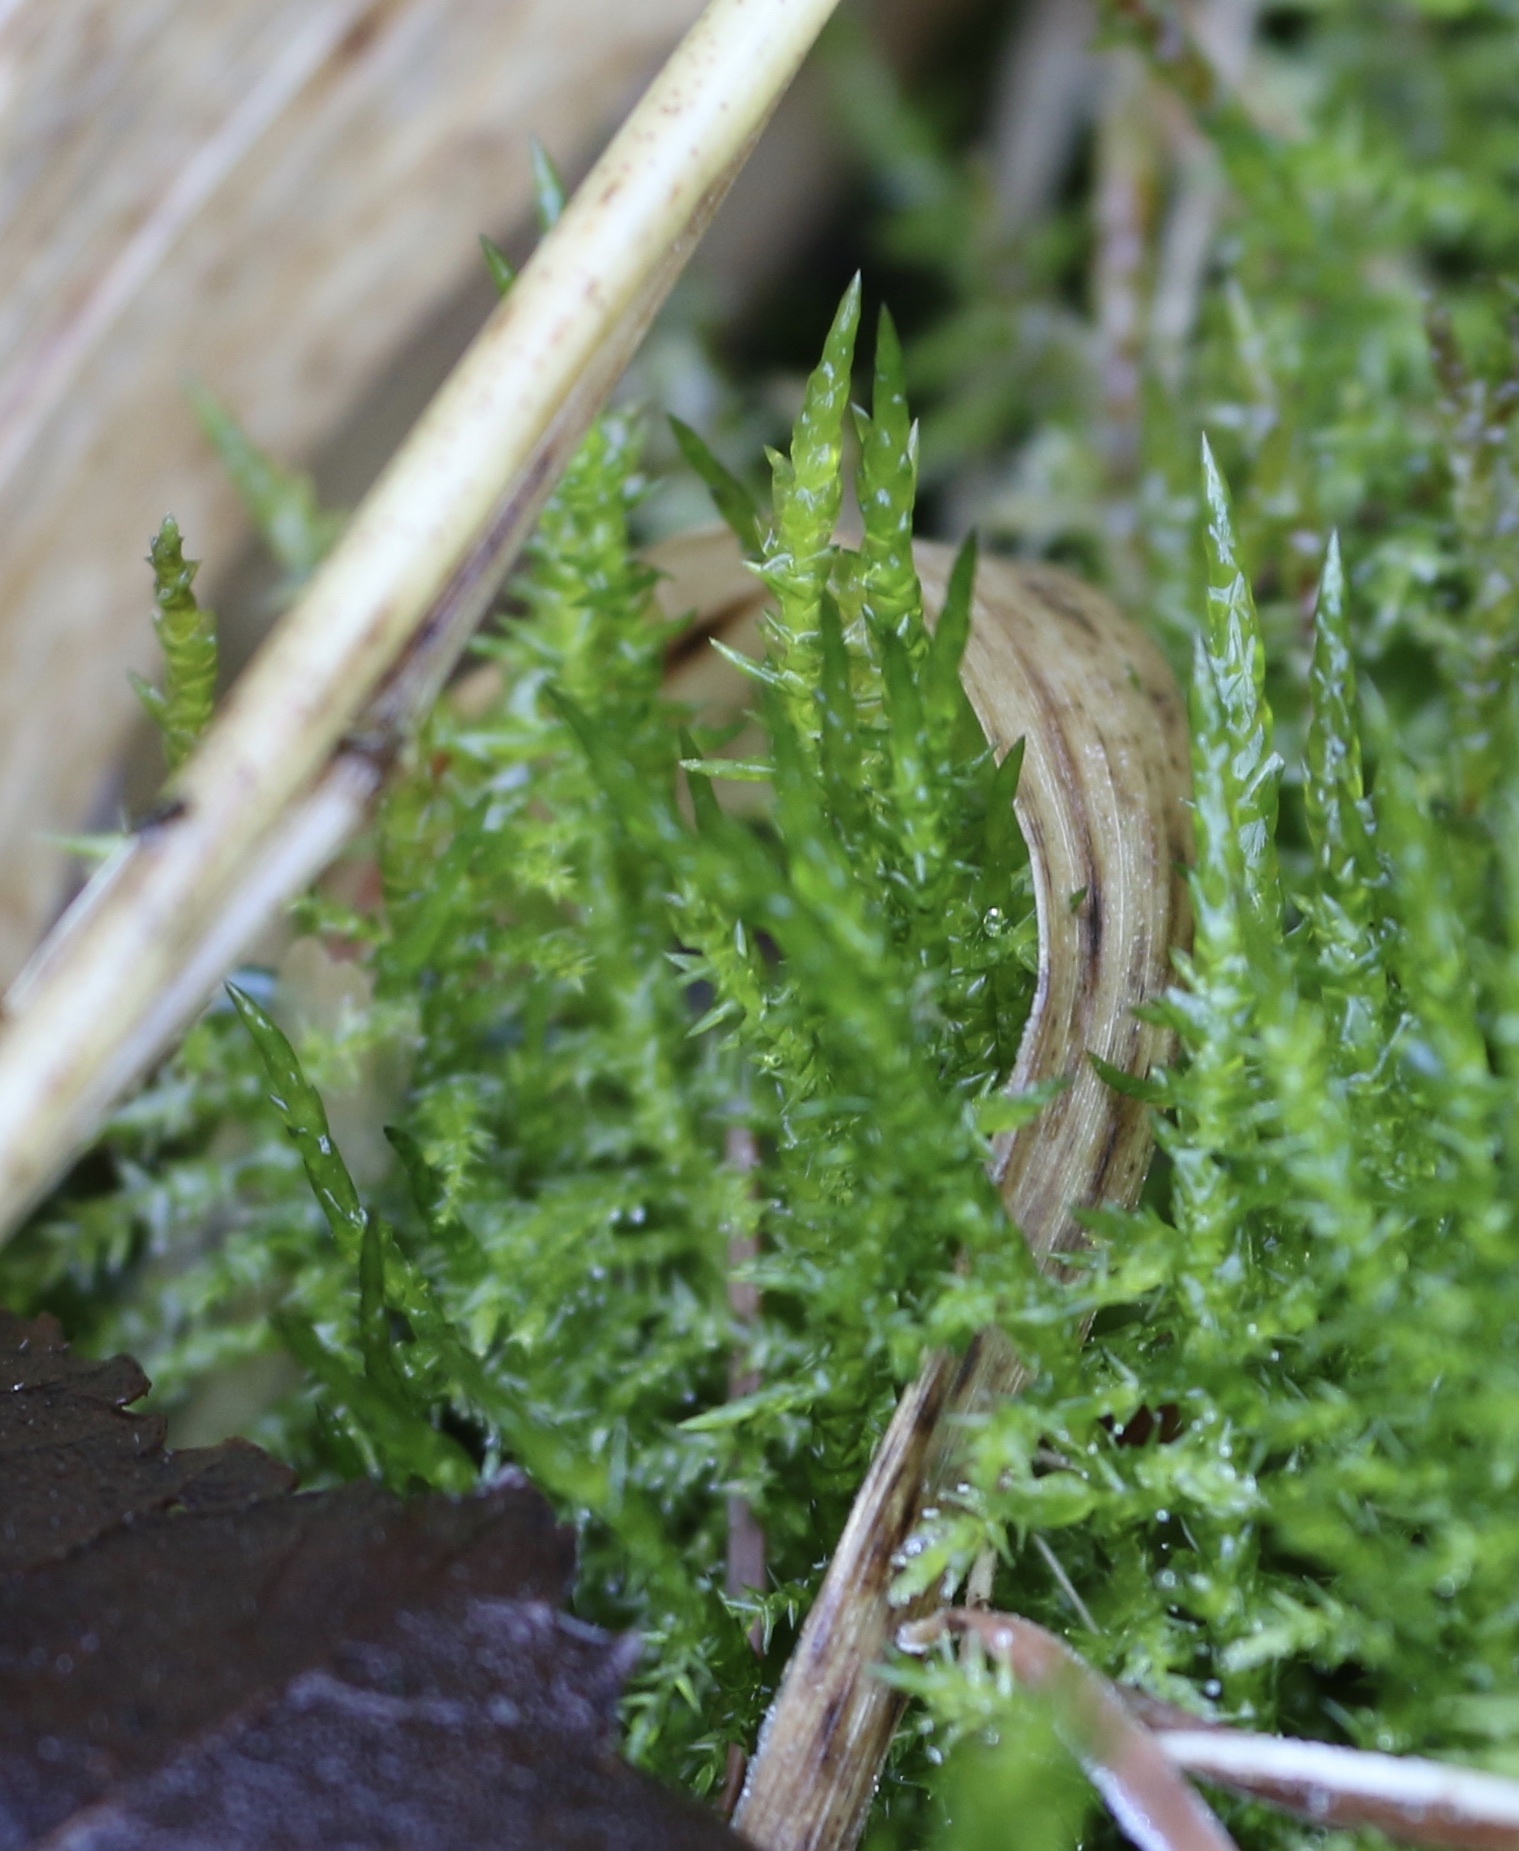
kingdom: Plantae
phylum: Bryophyta
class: Bryopsida
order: Hypnales
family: Pylaisiaceae
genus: Calliergonella
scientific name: Calliergonella cuspidata
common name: Common large wetland moss
